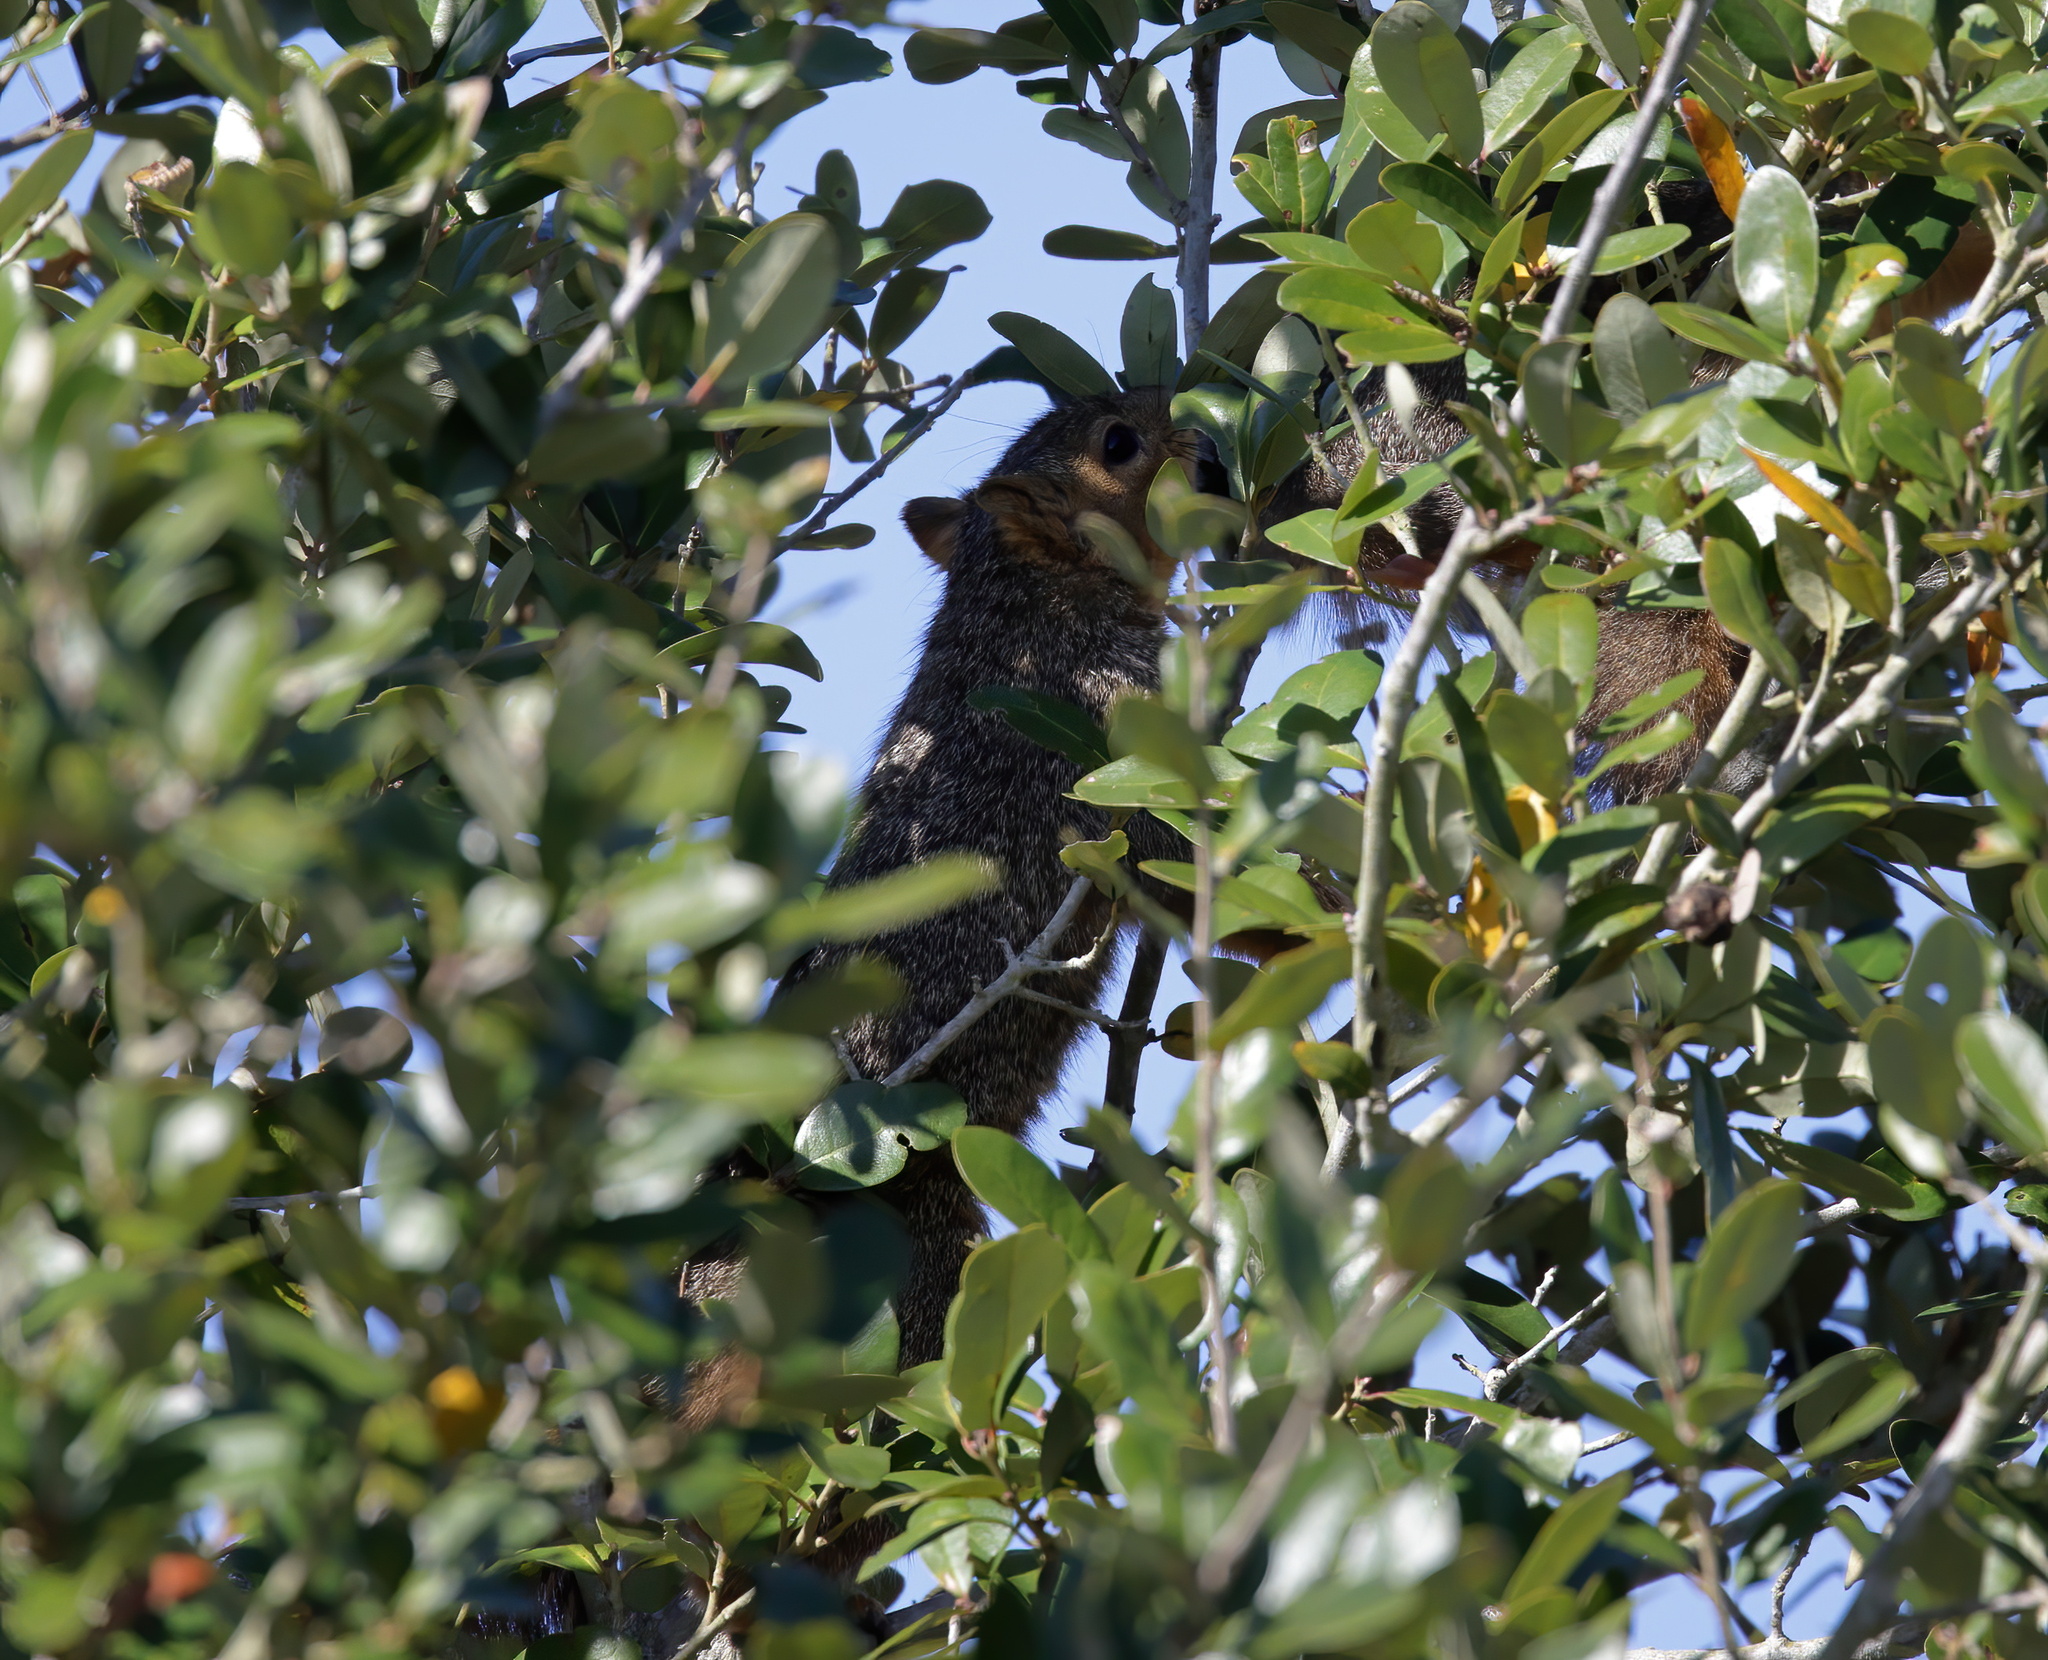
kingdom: Animalia
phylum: Chordata
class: Mammalia
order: Rodentia
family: Sciuridae
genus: Sciurus
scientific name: Sciurus niger
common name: Fox squirrel
